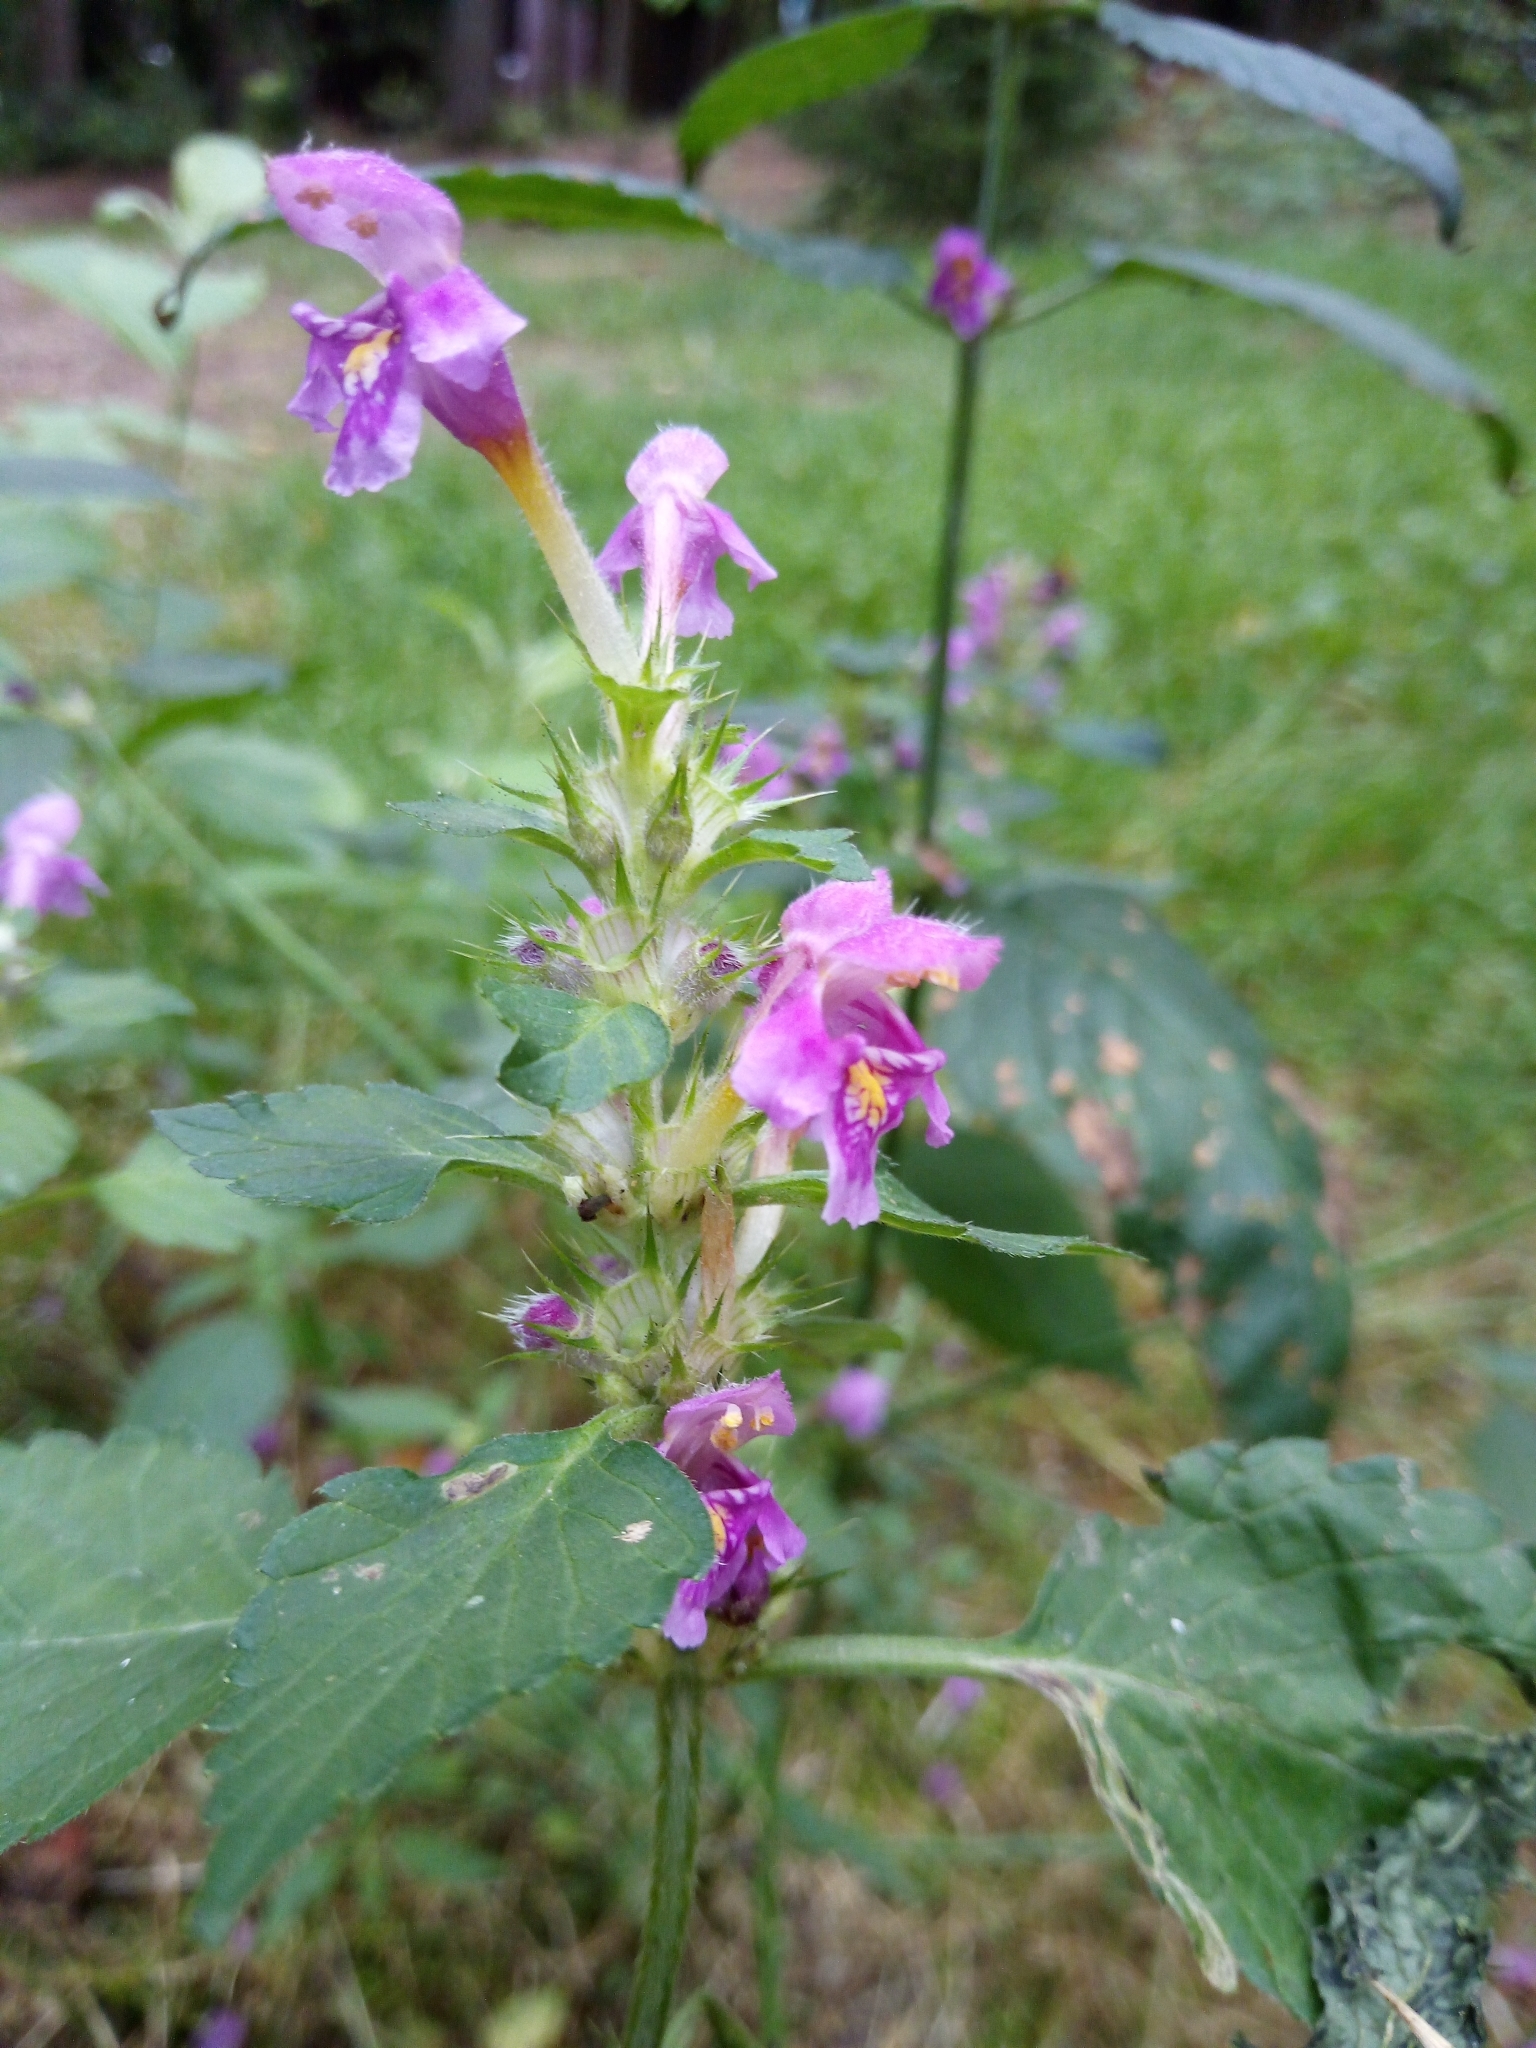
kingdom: Plantae
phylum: Tracheophyta
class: Magnoliopsida
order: Lamiales
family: Lamiaceae
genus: Galeopsis
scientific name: Galeopsis pubescens
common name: Downy hemp-nettle
